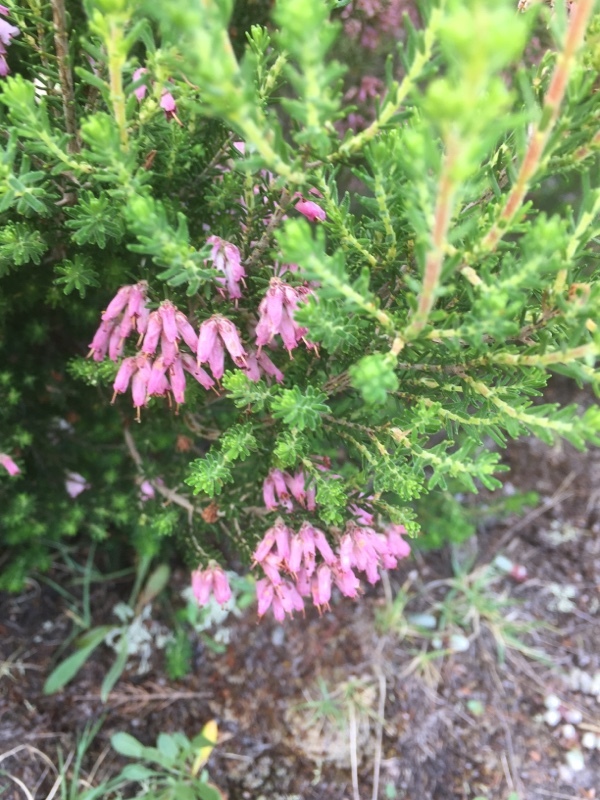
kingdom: Plantae
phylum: Tracheophyta
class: Magnoliopsida
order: Ericales
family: Ericaceae
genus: Erica
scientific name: Erica australis
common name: Spanish heath
